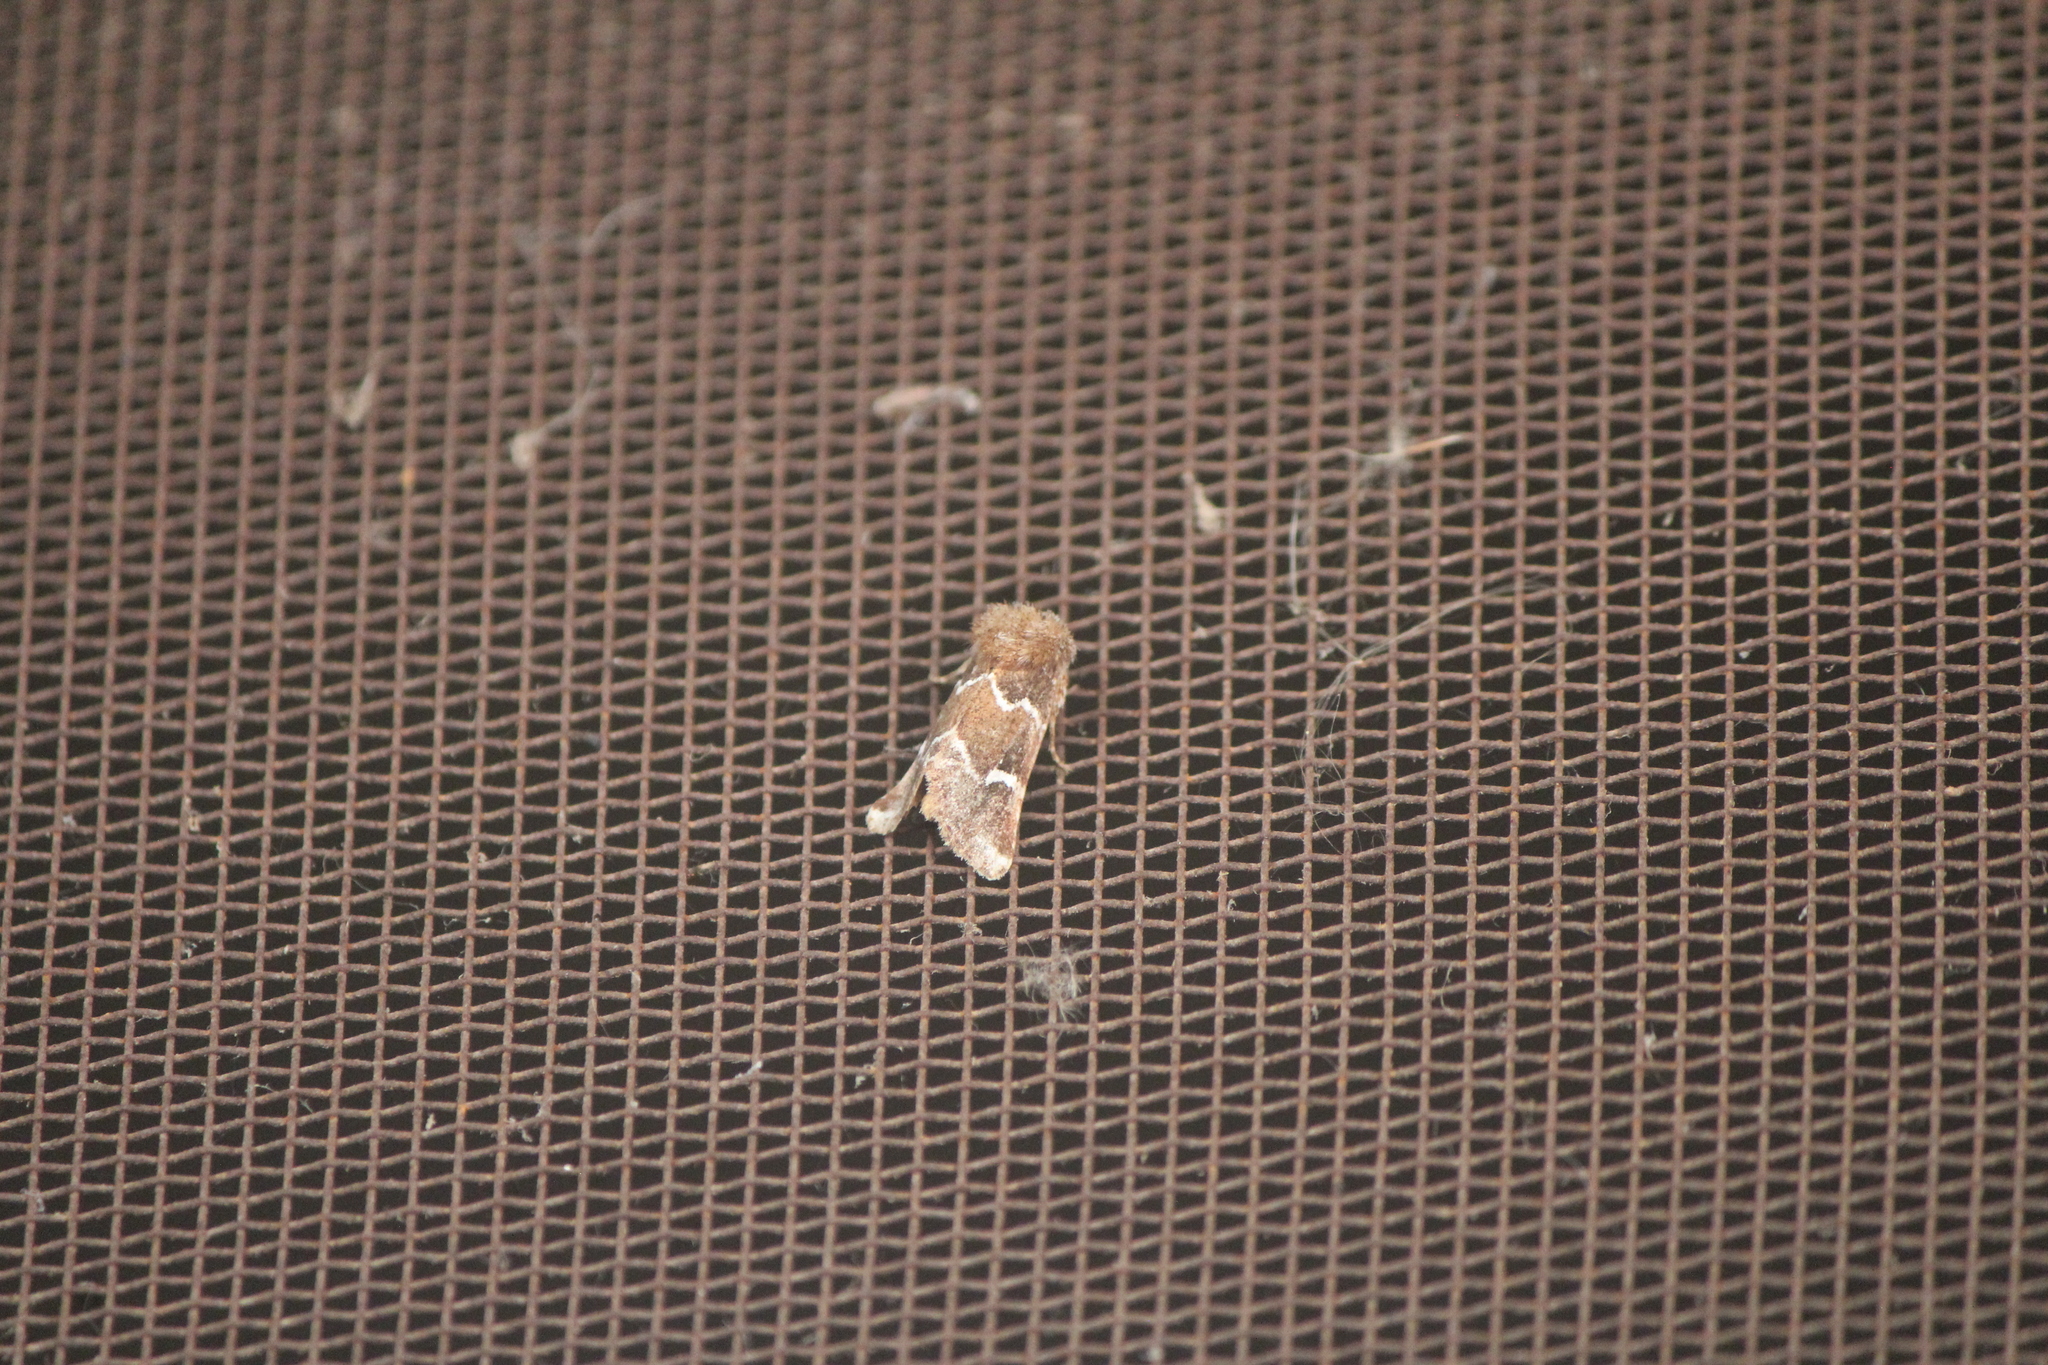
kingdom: Animalia
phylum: Arthropoda
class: Insecta
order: Lepidoptera
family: Noctuidae
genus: Nacopa
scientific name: Nacopa bistrigata
